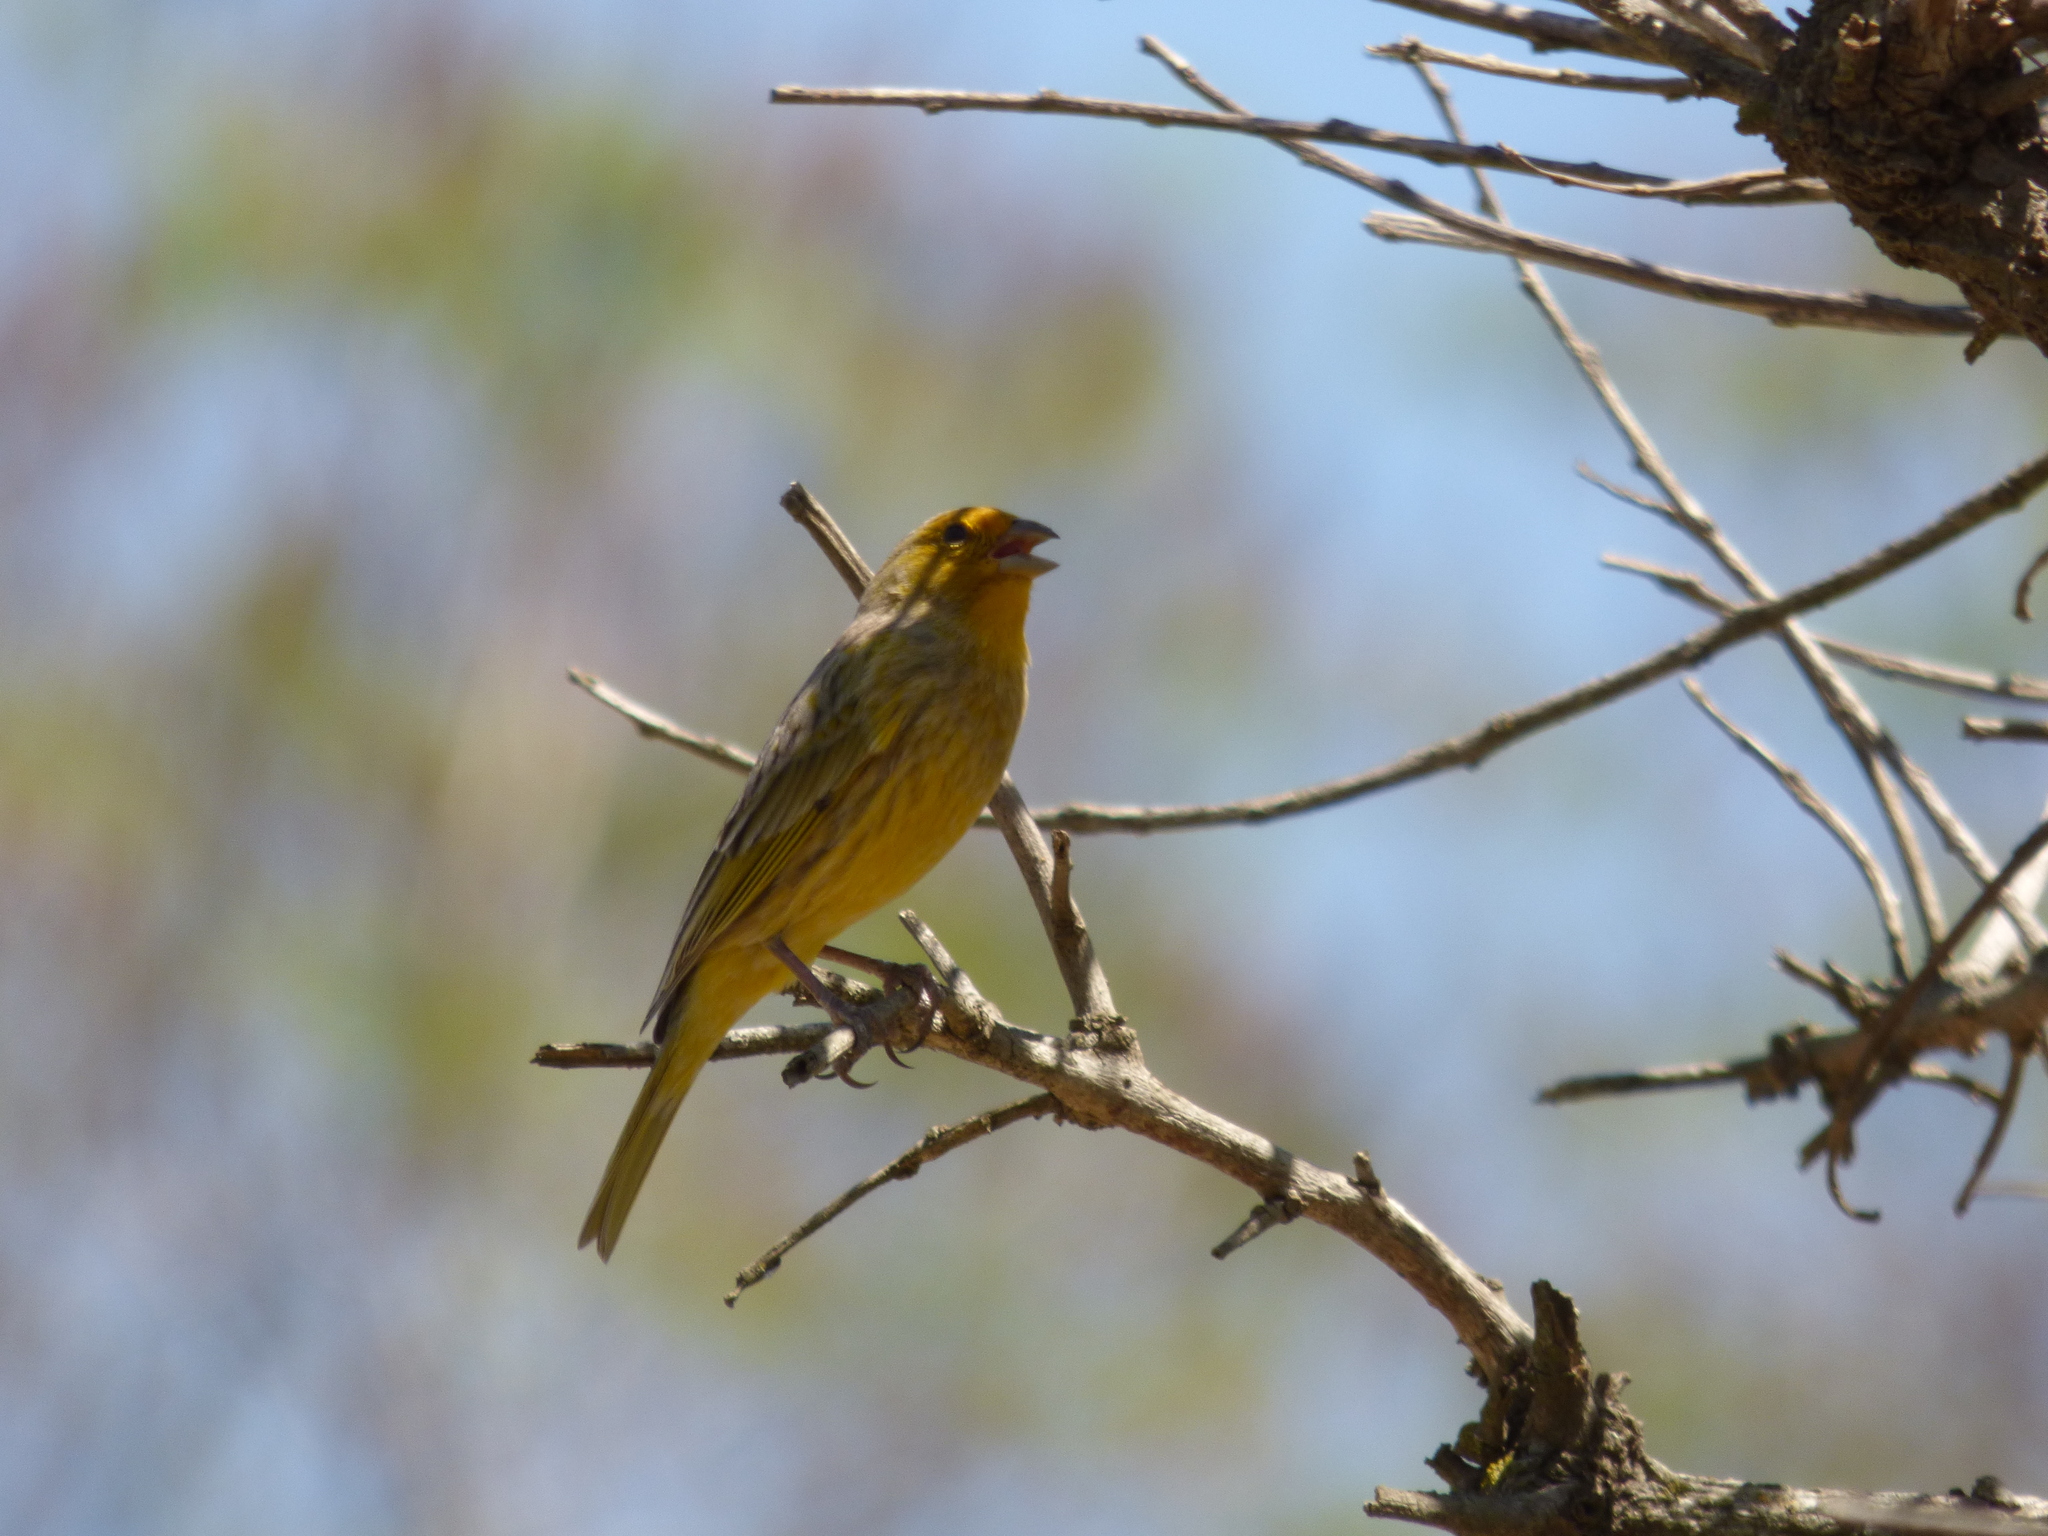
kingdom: Animalia
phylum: Chordata
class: Aves
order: Passeriformes
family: Thraupidae
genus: Sicalis
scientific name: Sicalis flaveola
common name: Saffron finch
